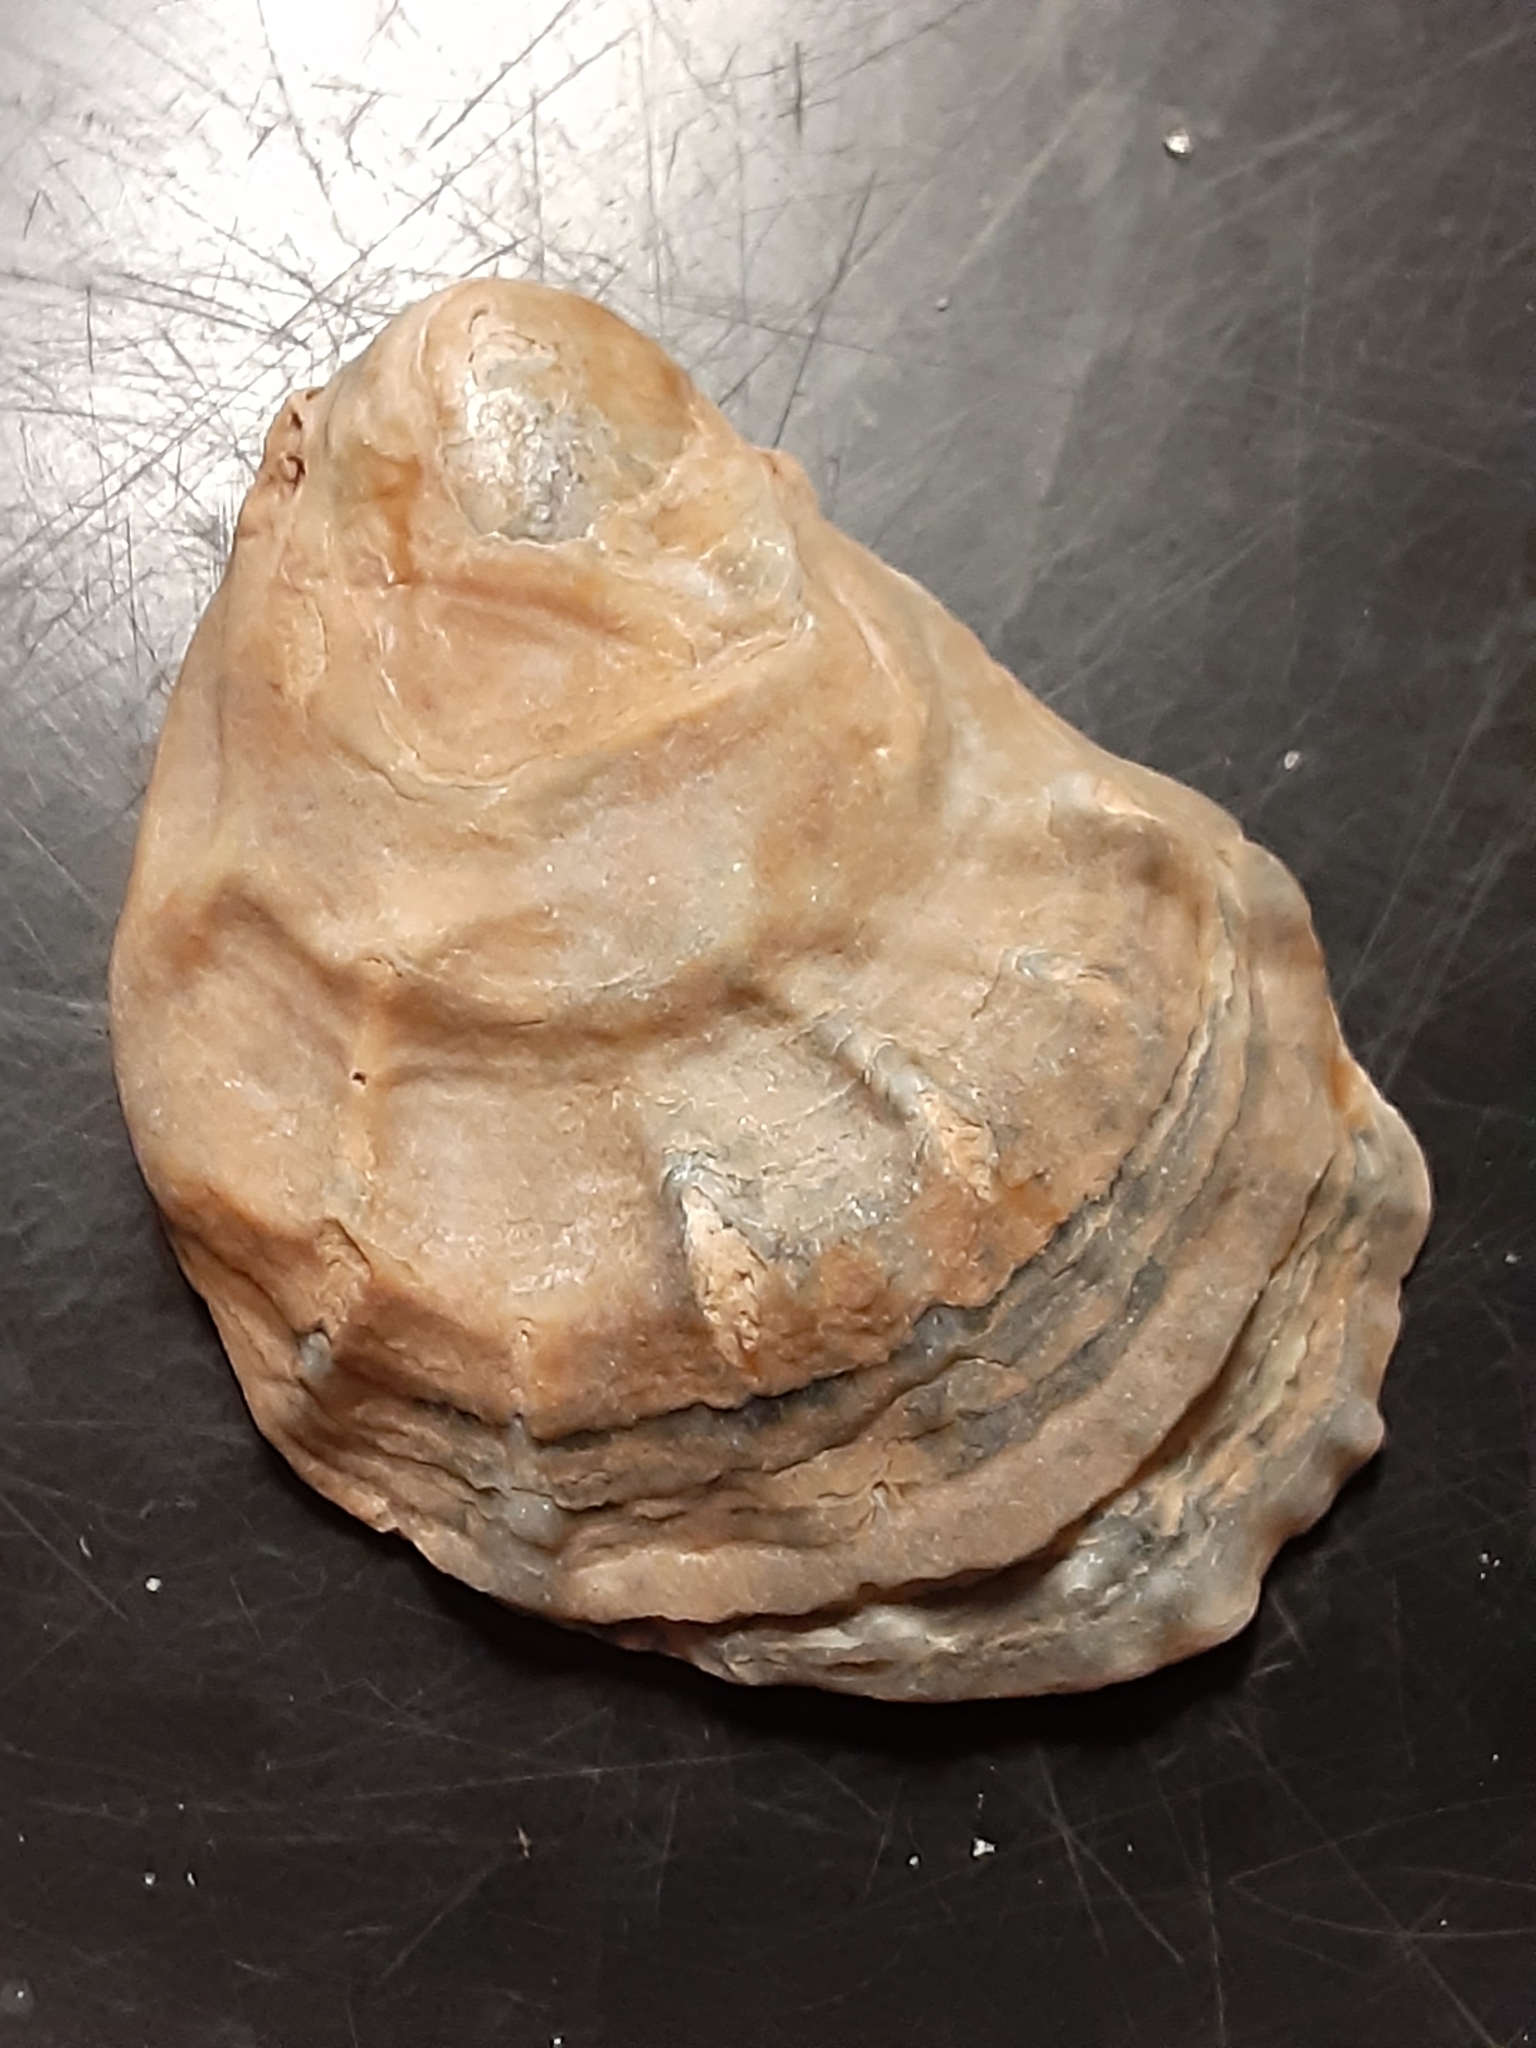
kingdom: Animalia
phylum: Mollusca
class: Bivalvia
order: Ostreida
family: Ostreidae
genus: Crassostrea
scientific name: Crassostrea virginica
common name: American oyster
